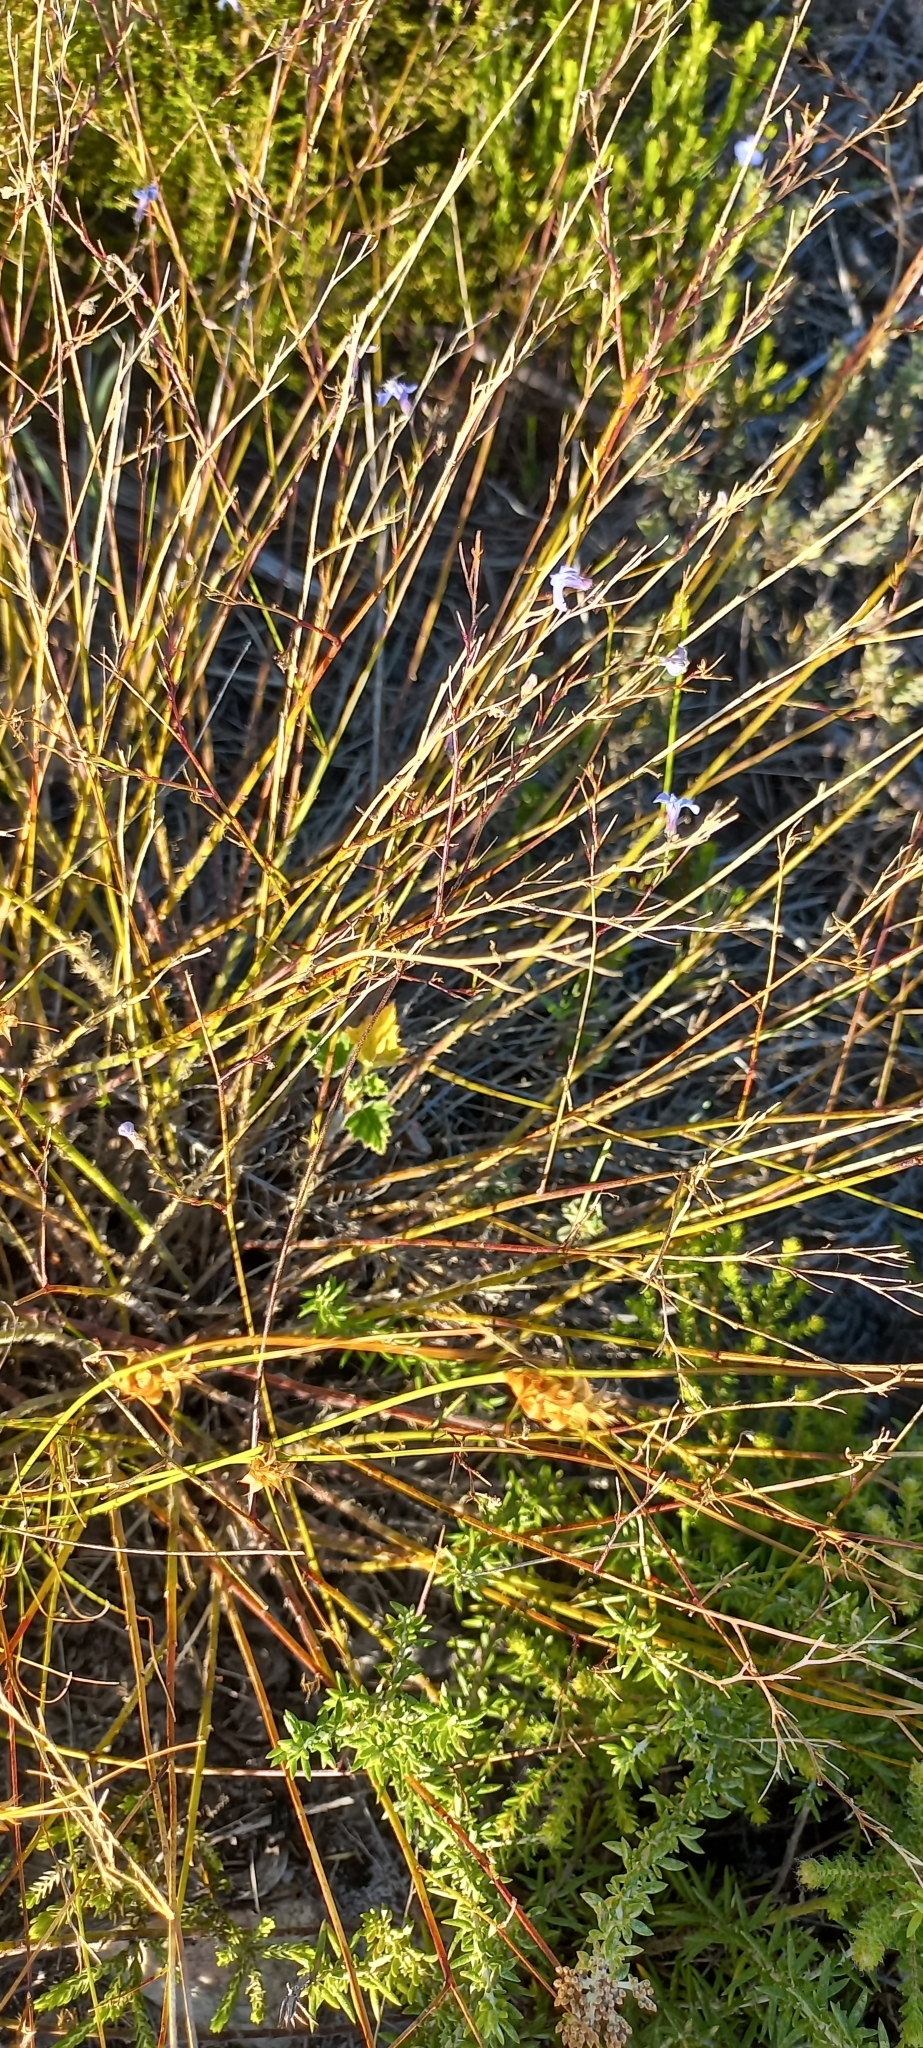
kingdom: Plantae
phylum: Tracheophyta
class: Magnoliopsida
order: Asterales
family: Campanulaceae
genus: Lobelia
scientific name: Lobelia setacea
